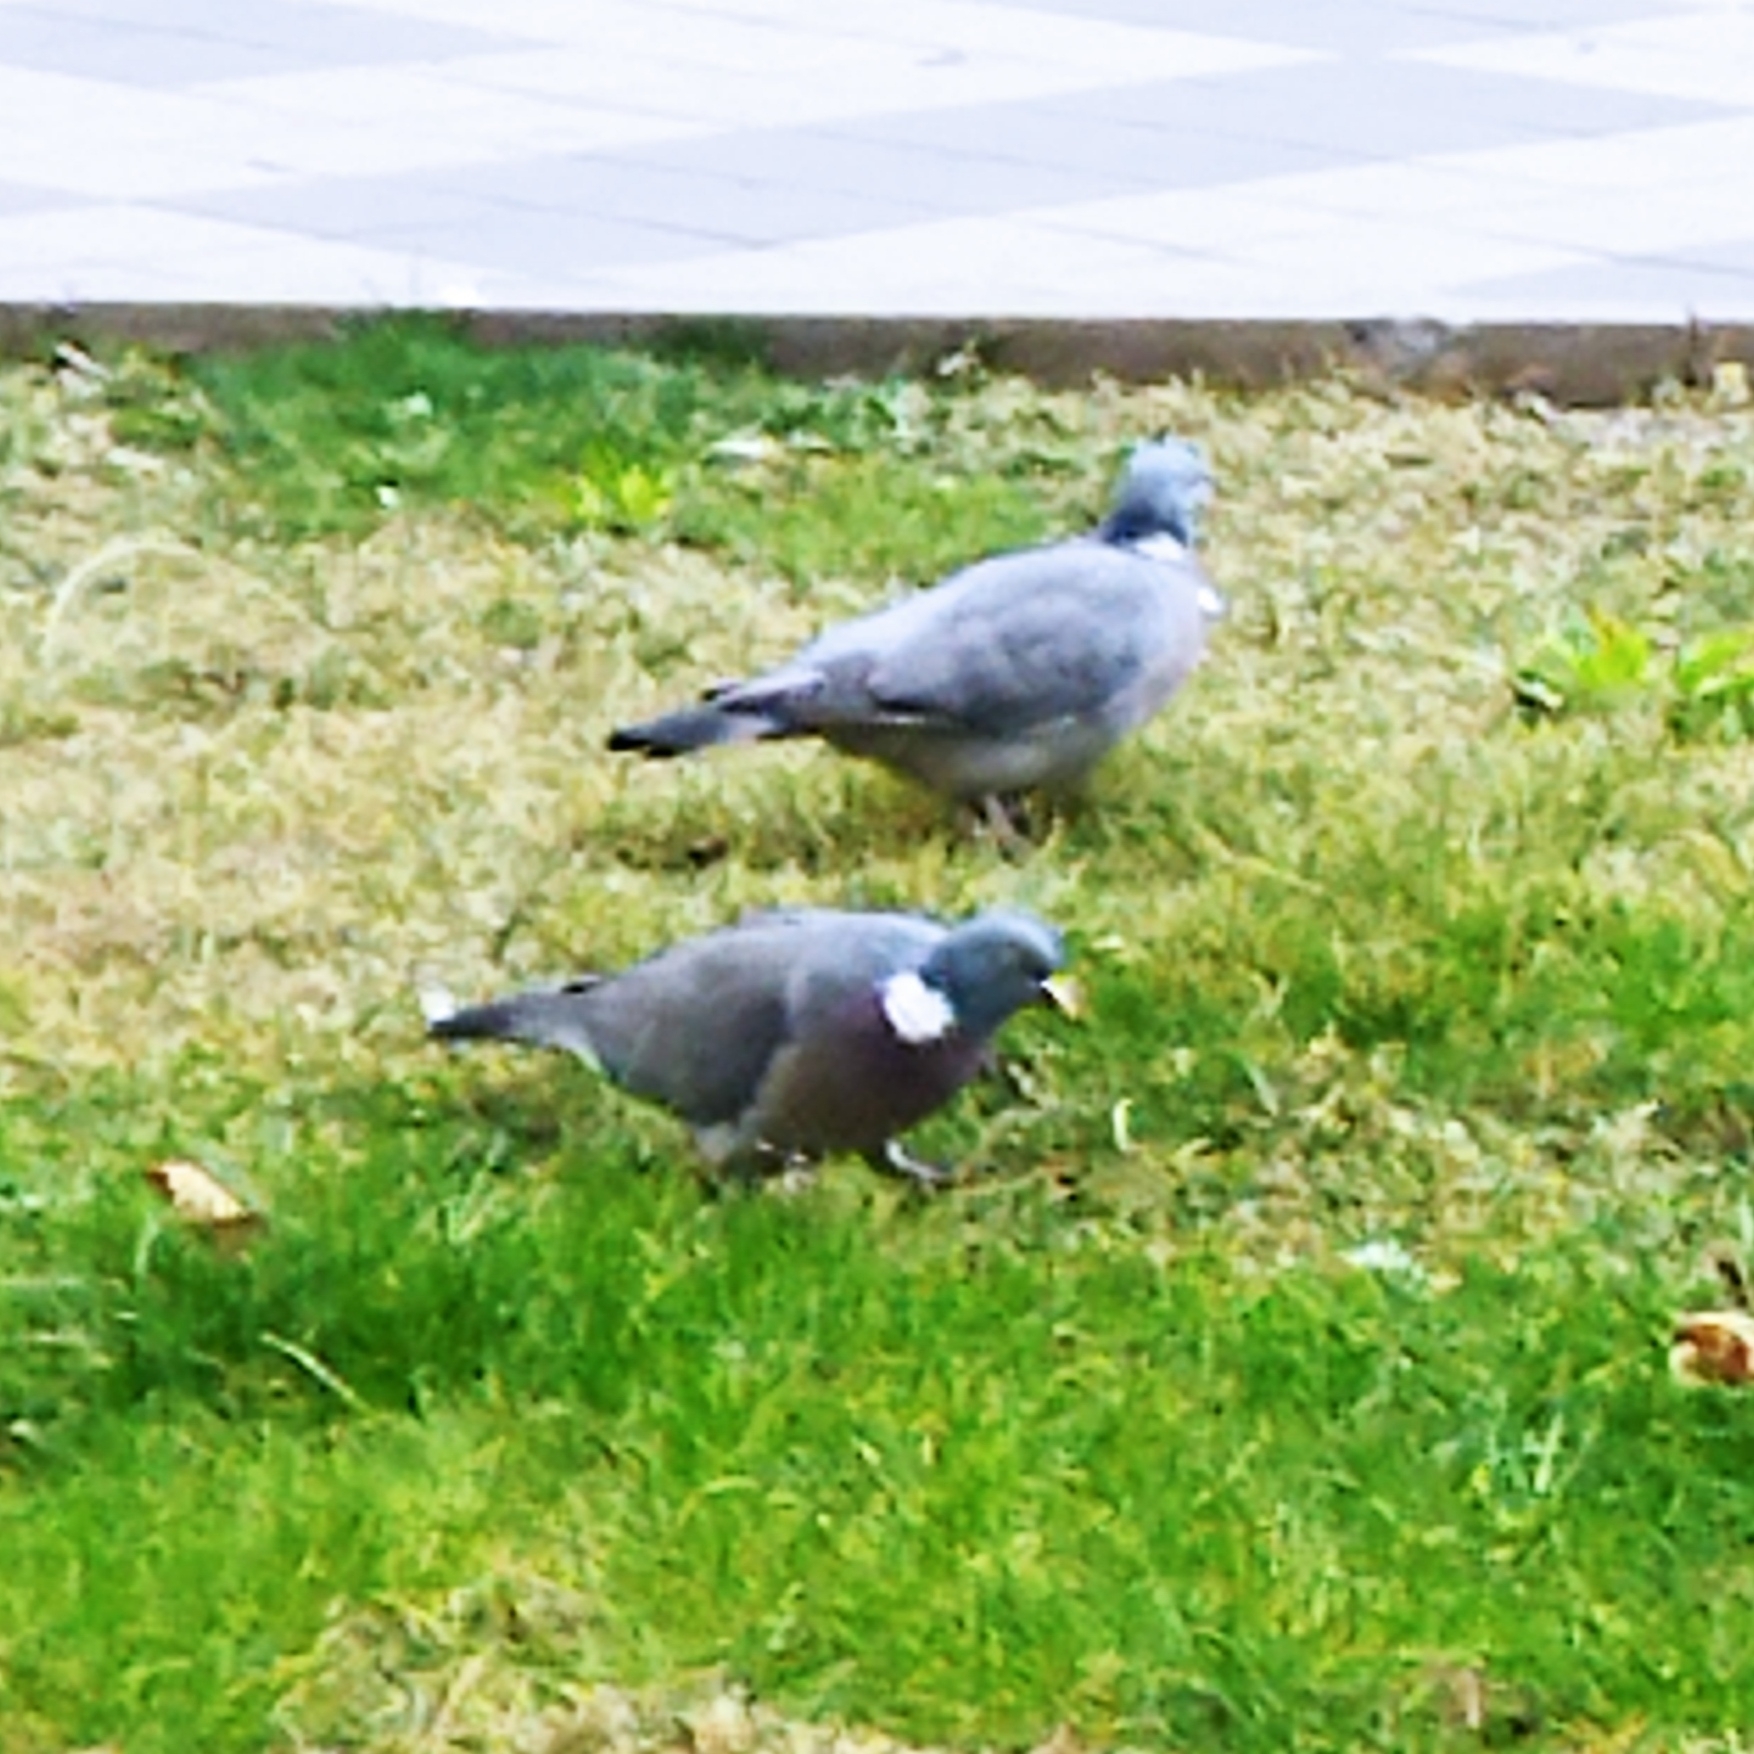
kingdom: Animalia
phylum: Chordata
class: Aves
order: Columbiformes
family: Columbidae
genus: Columba
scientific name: Columba palumbus
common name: Common wood pigeon
